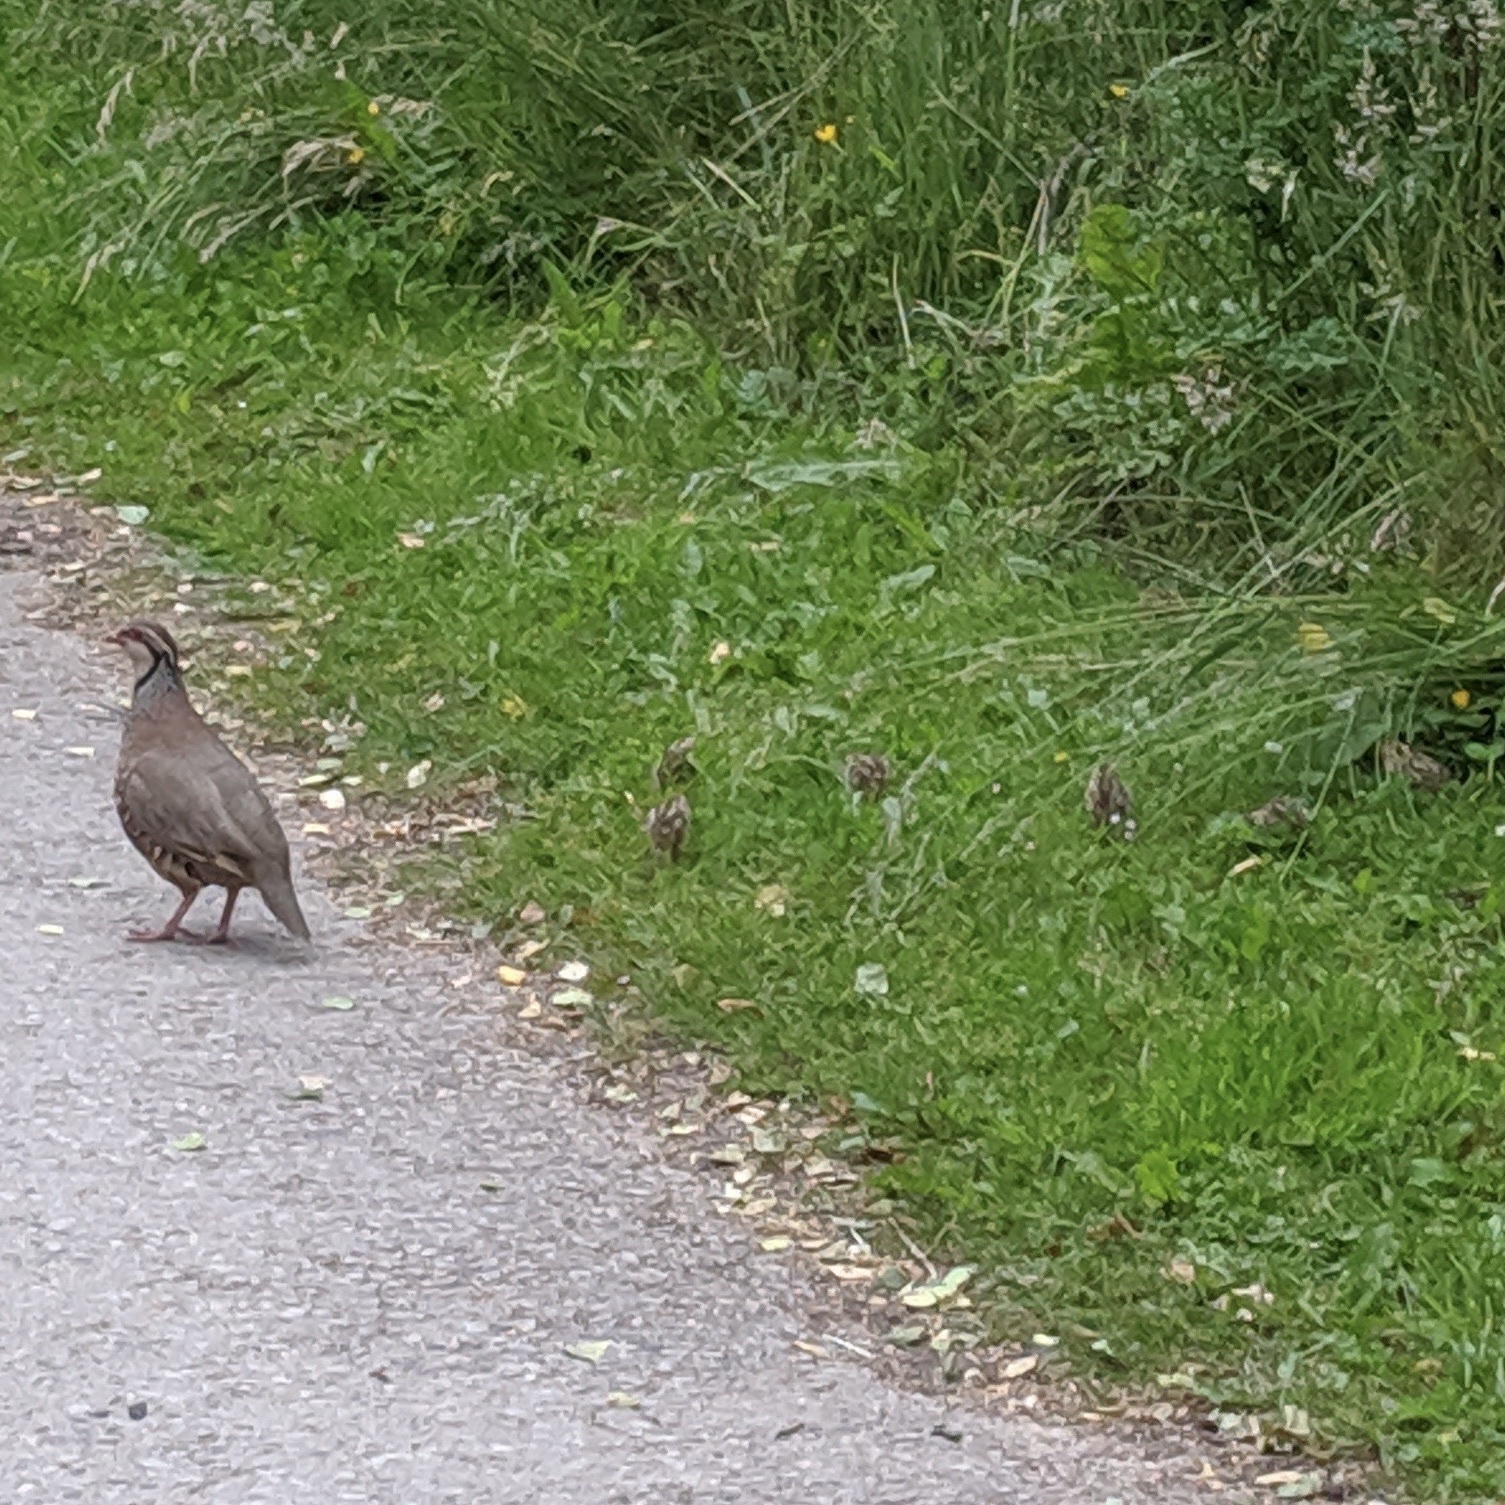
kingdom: Animalia
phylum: Chordata
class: Aves
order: Galliformes
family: Phasianidae
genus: Alectoris
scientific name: Alectoris rufa
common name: Red-legged partridge
